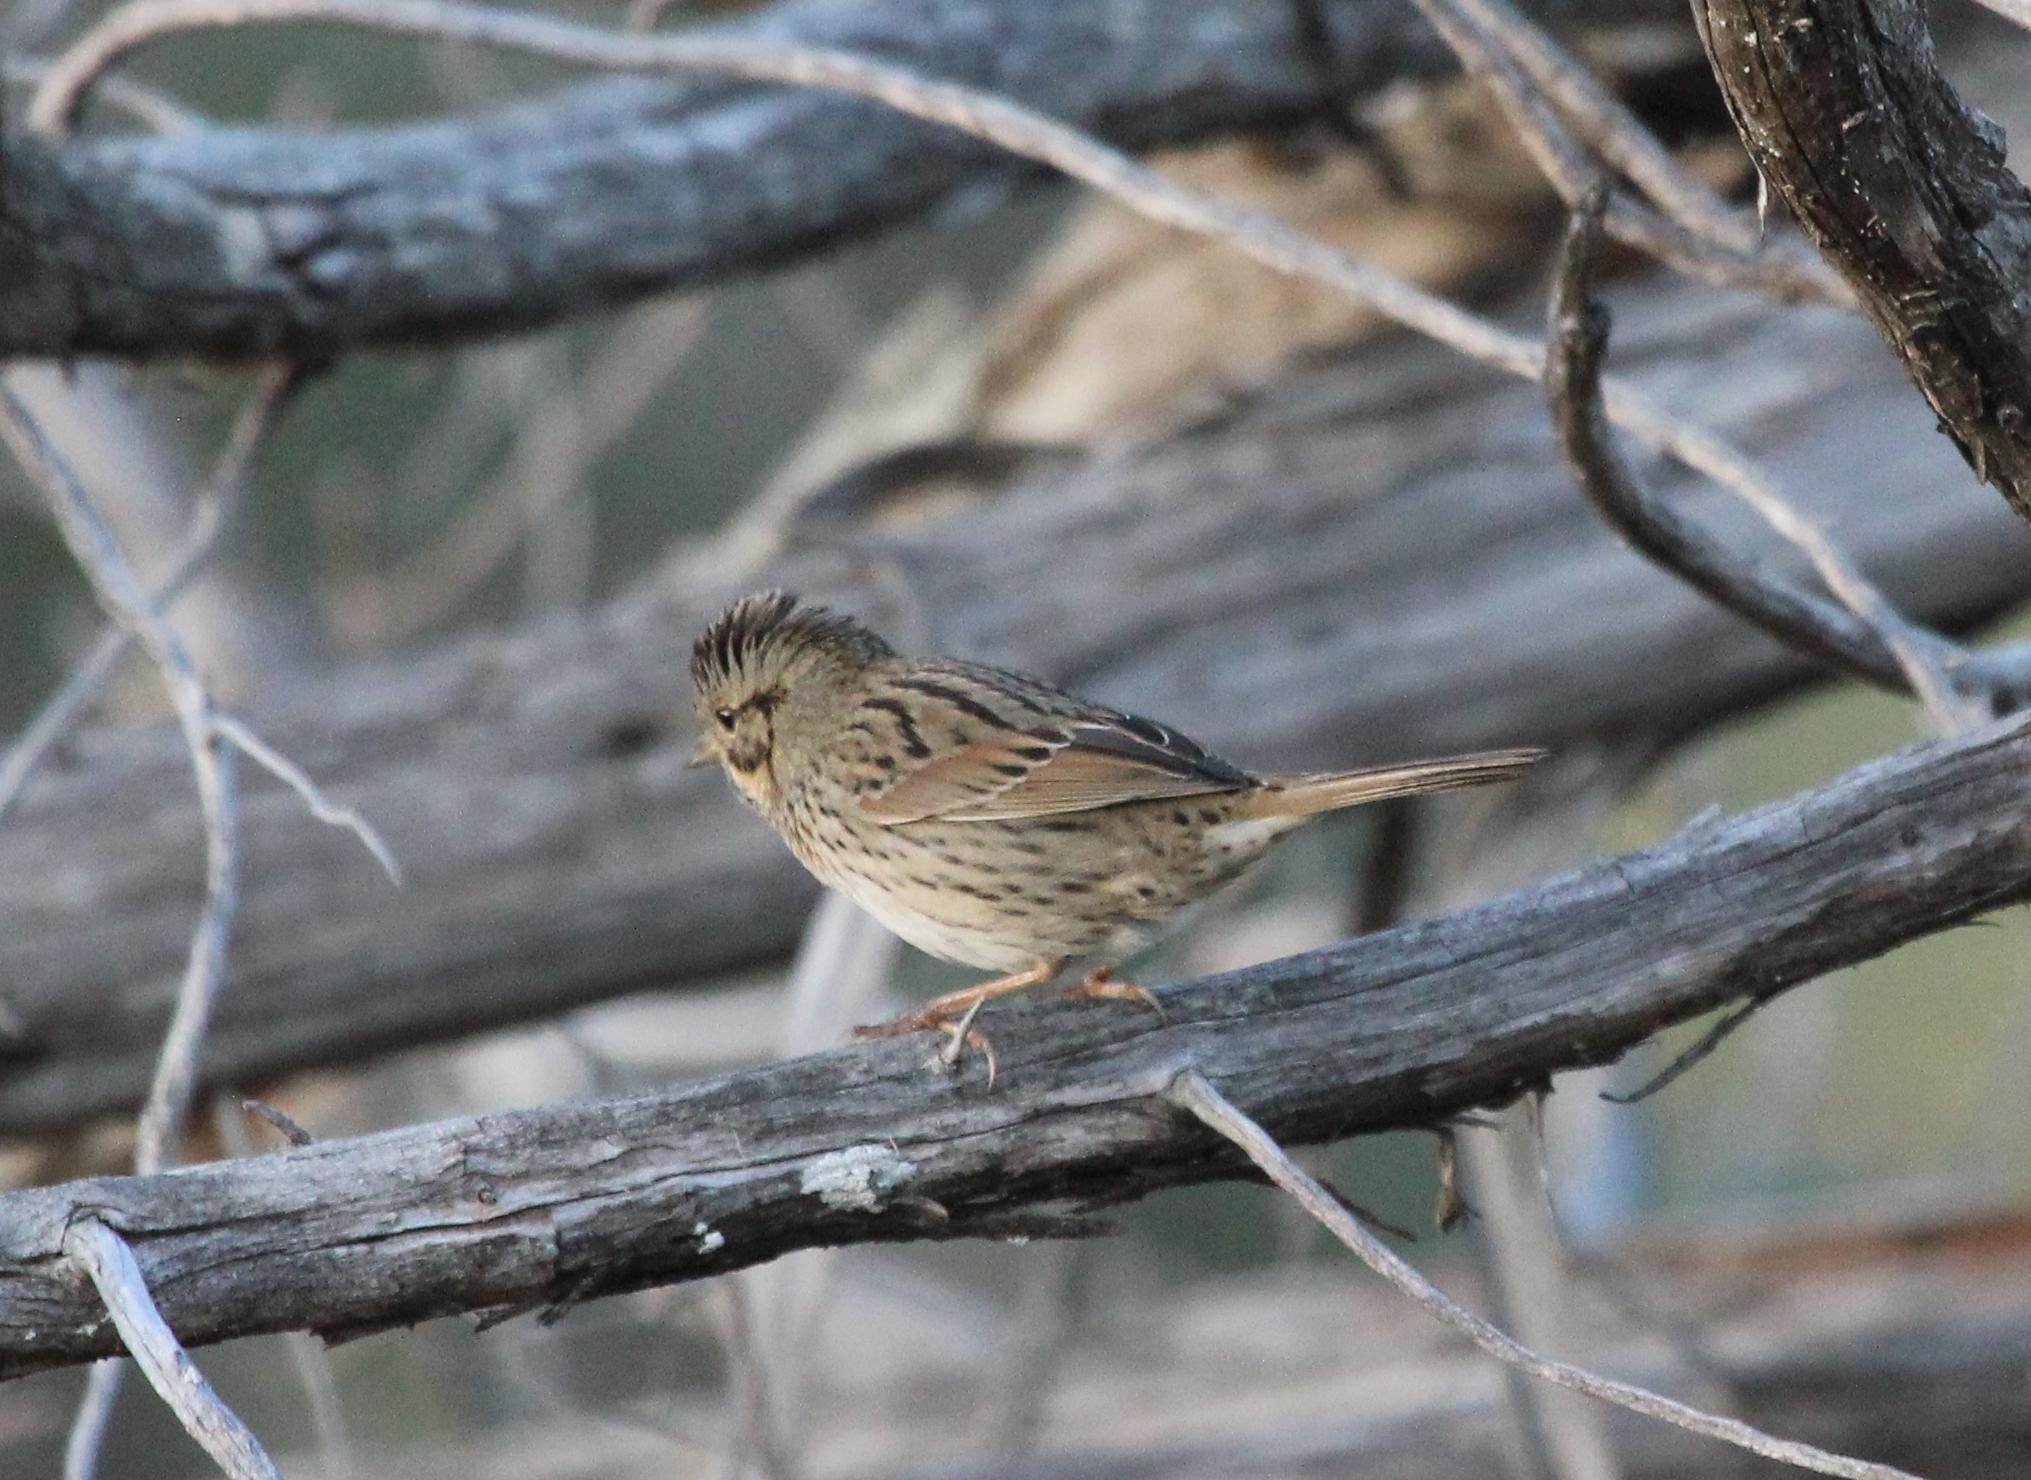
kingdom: Animalia
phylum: Chordata
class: Aves
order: Passeriformes
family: Passerellidae
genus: Melospiza
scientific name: Melospiza lincolnii
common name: Lincoln's sparrow
